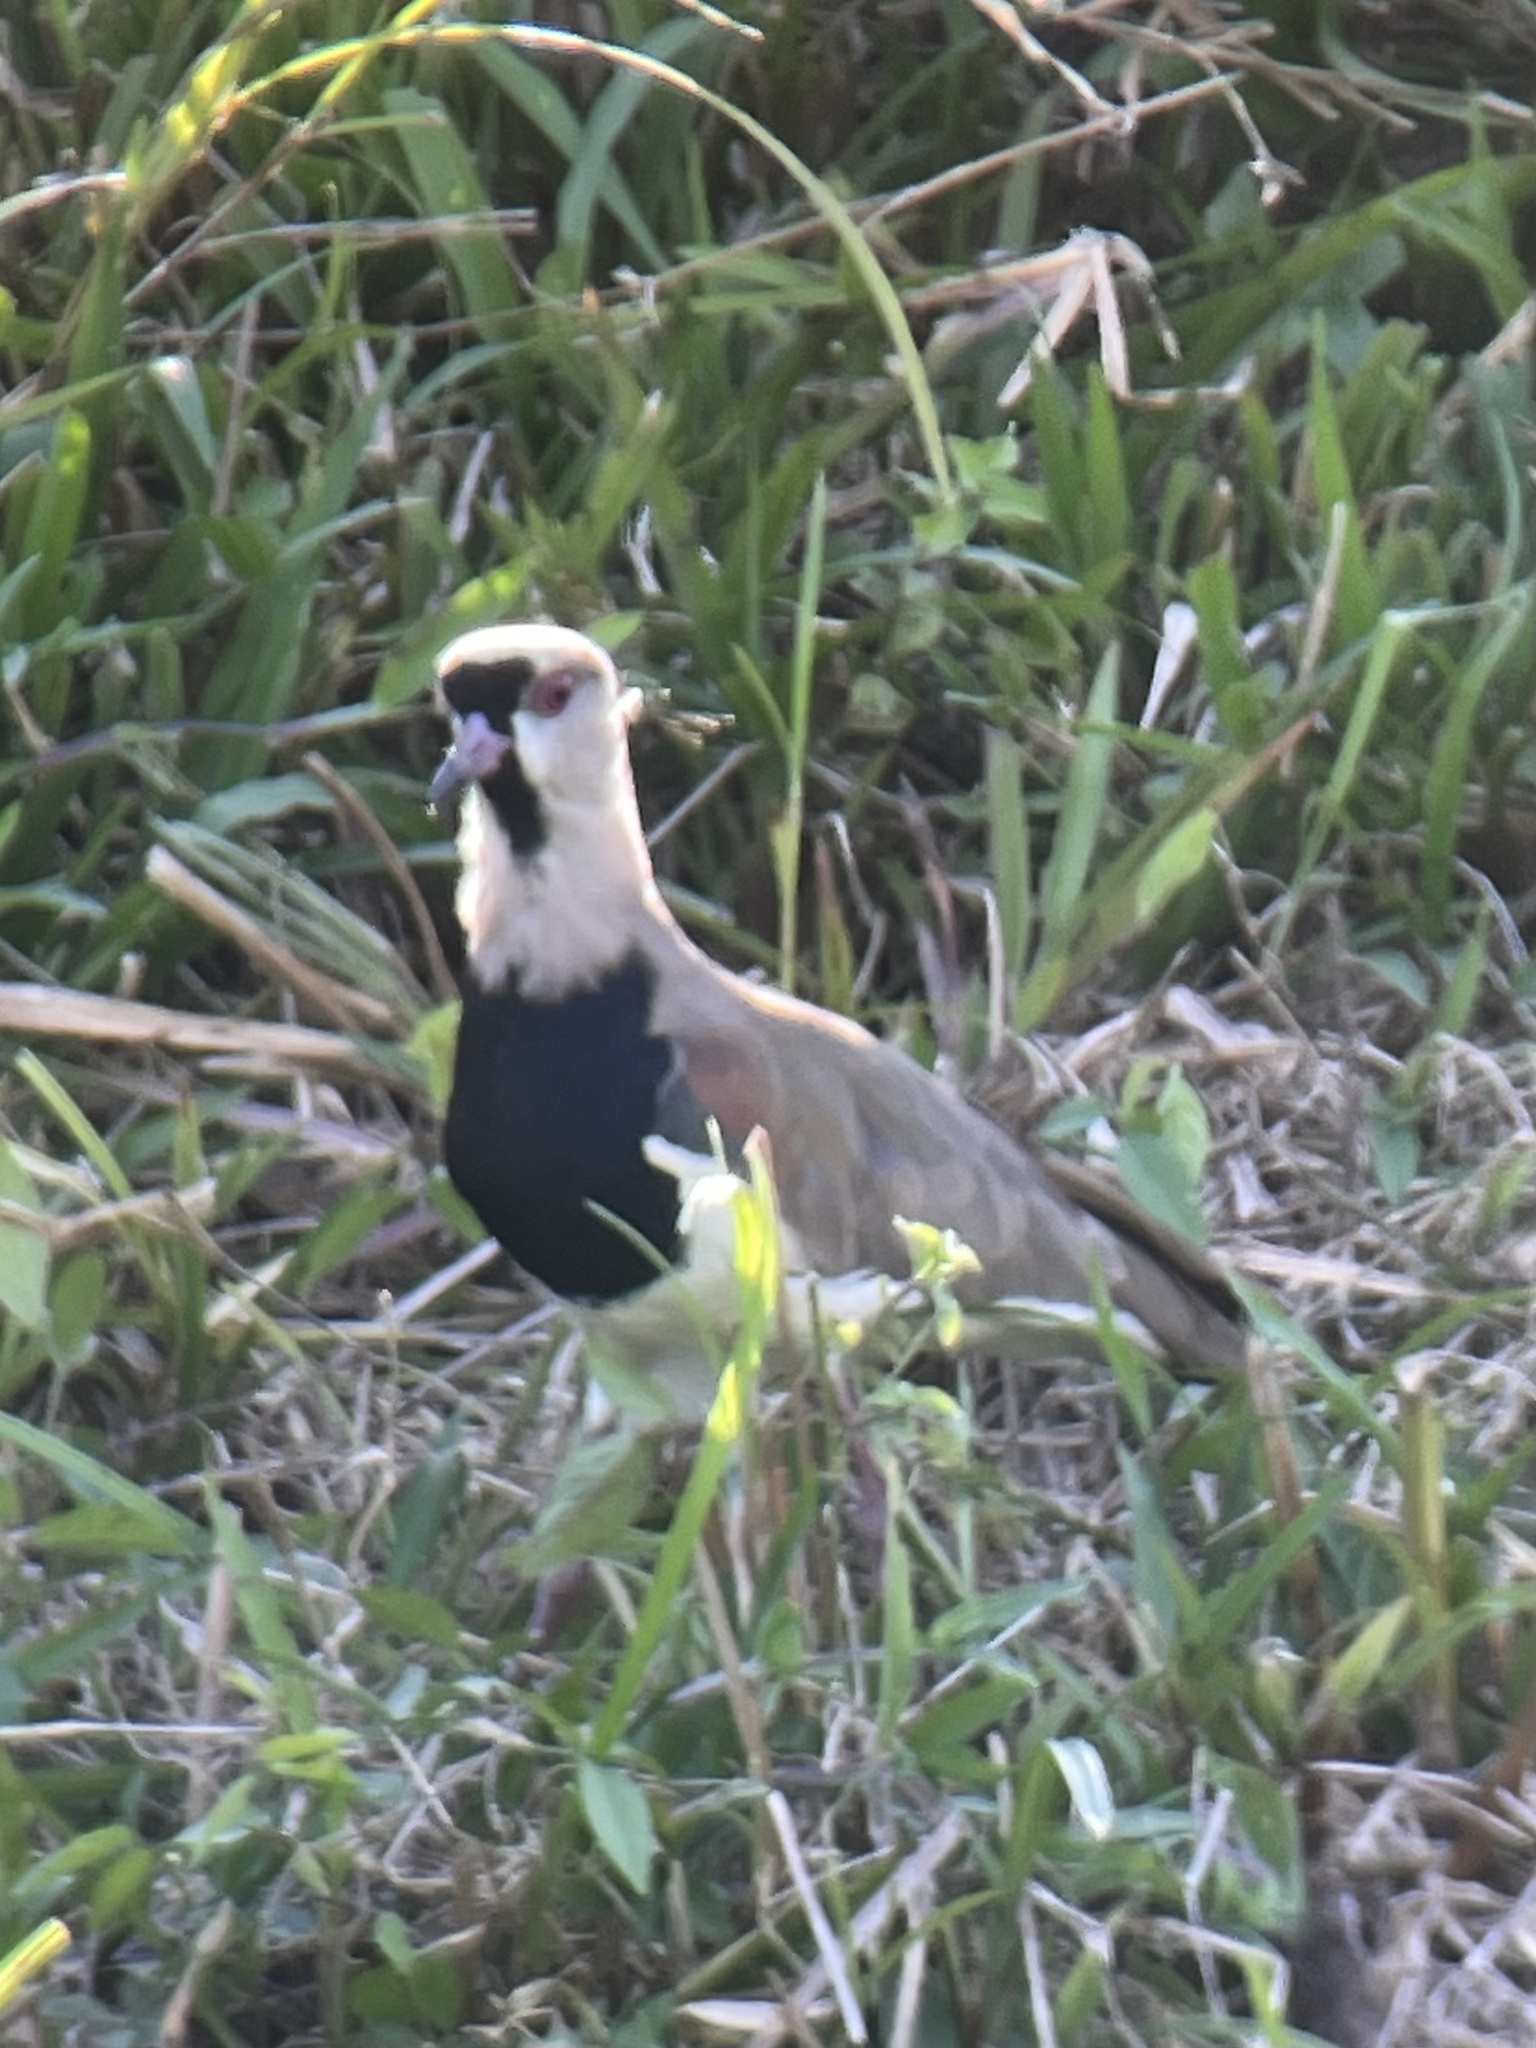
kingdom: Animalia
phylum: Chordata
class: Aves
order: Charadriiformes
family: Charadriidae
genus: Vanellus
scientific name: Vanellus chilensis
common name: Southern lapwing
